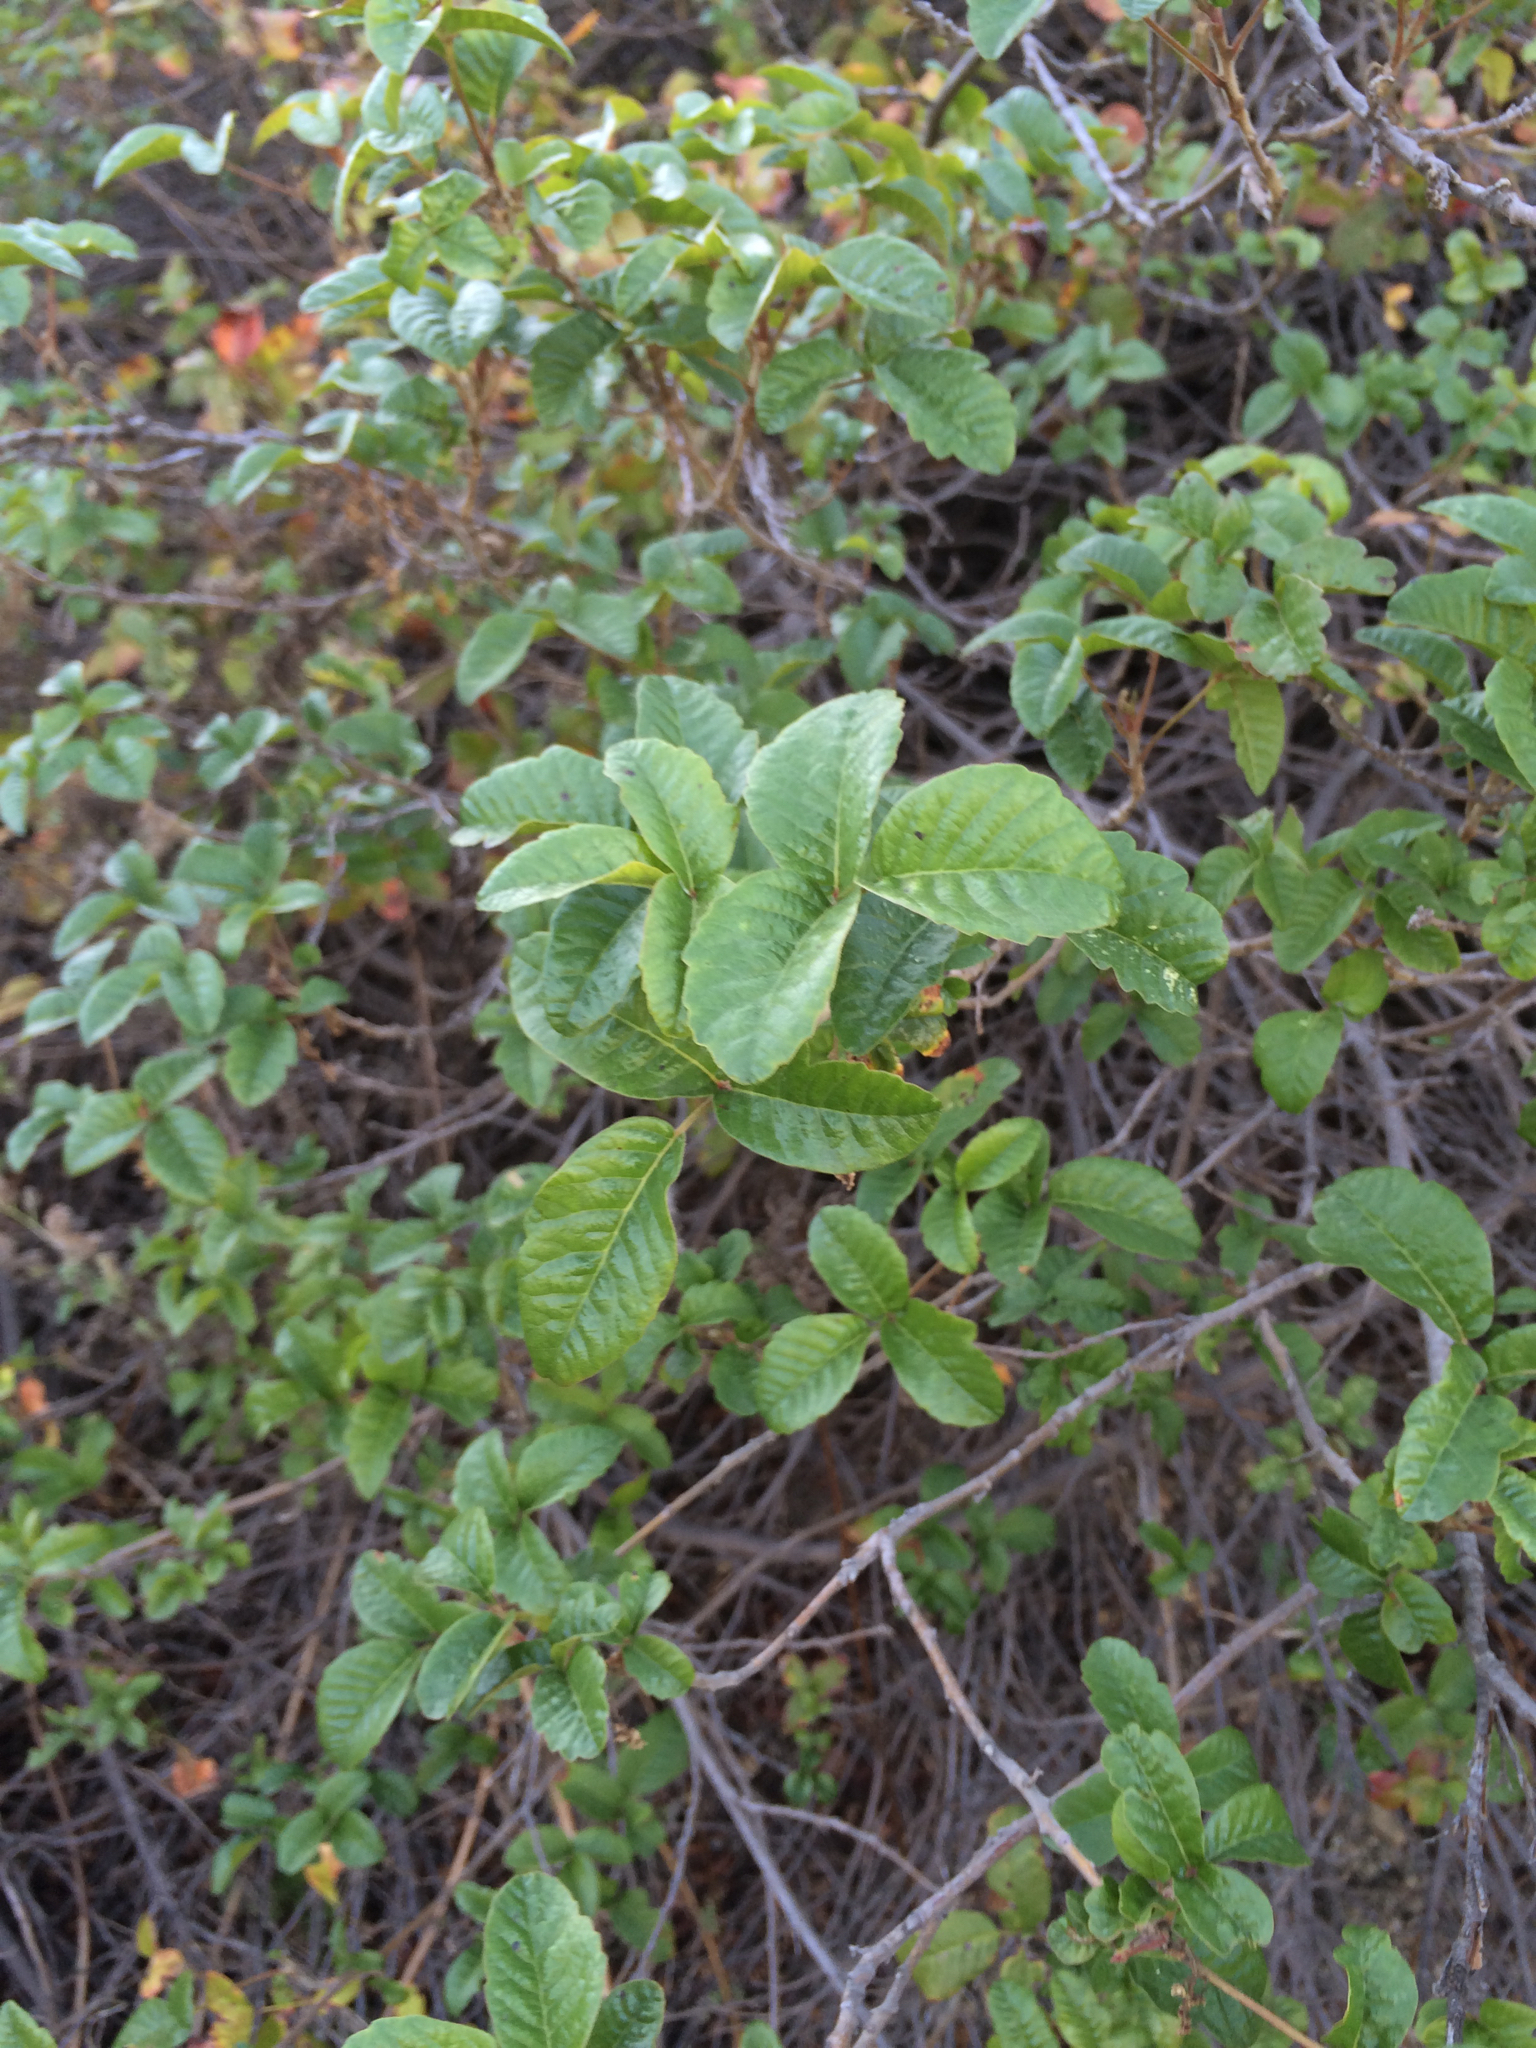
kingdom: Plantae
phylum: Tracheophyta
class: Magnoliopsida
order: Sapindales
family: Anacardiaceae
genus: Toxicodendron
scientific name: Toxicodendron diversilobum
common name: Pacific poison-oak
